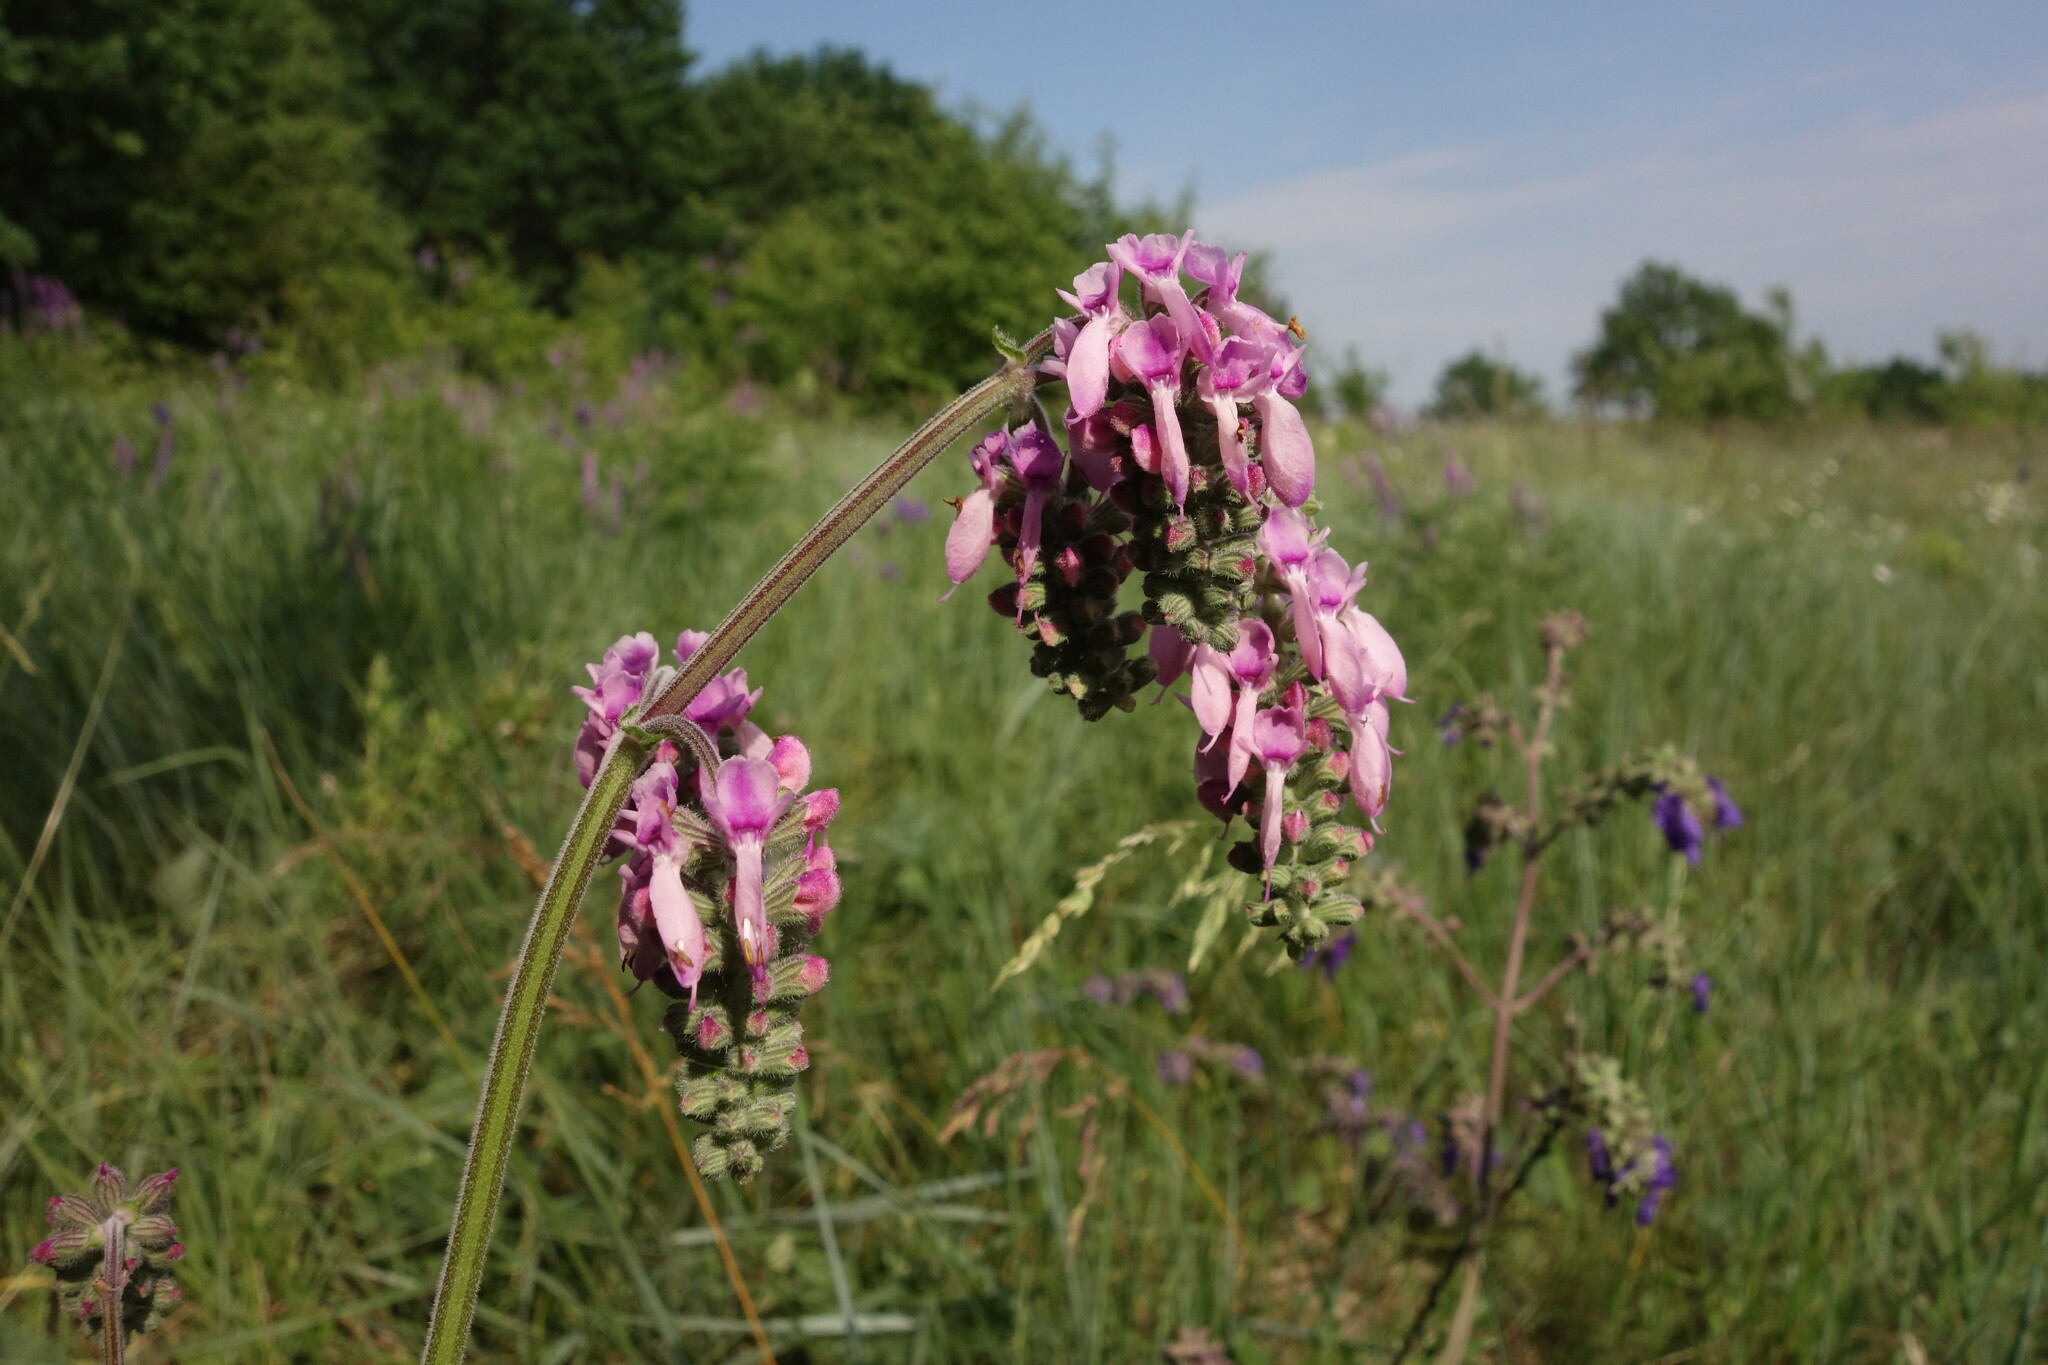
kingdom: Plantae
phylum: Tracheophyta
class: Magnoliopsida
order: Lamiales
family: Lamiaceae
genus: Salvia
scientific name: Salvia nutans
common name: Nodding sage
